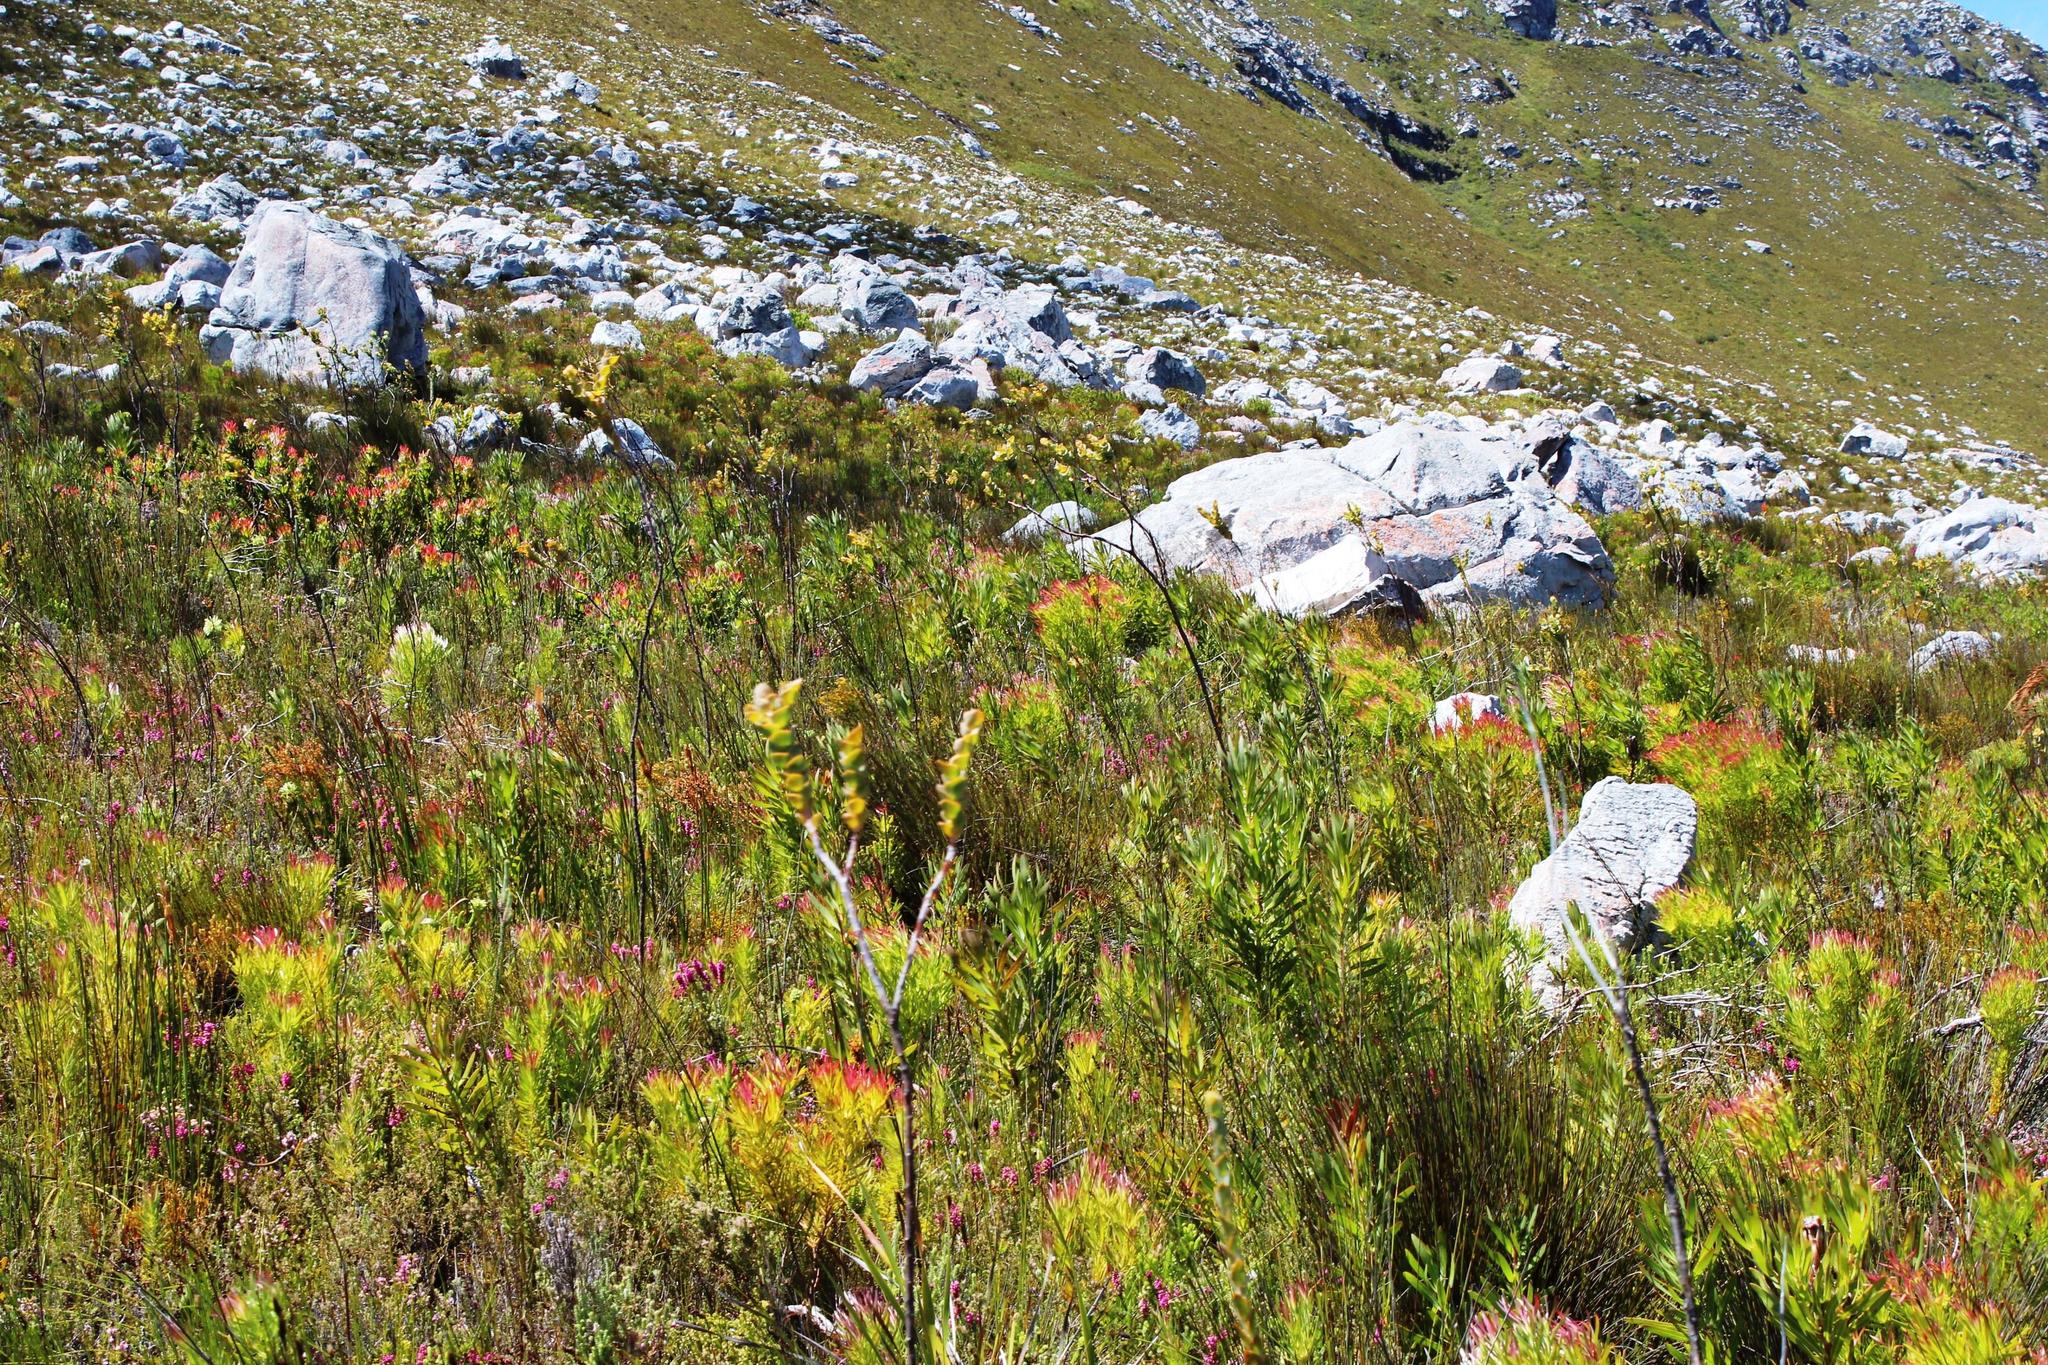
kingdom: Plantae
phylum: Tracheophyta
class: Magnoliopsida
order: Proteales
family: Proteaceae
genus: Protea
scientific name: Protea lepidocarpodendron
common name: Black-bearded protea
